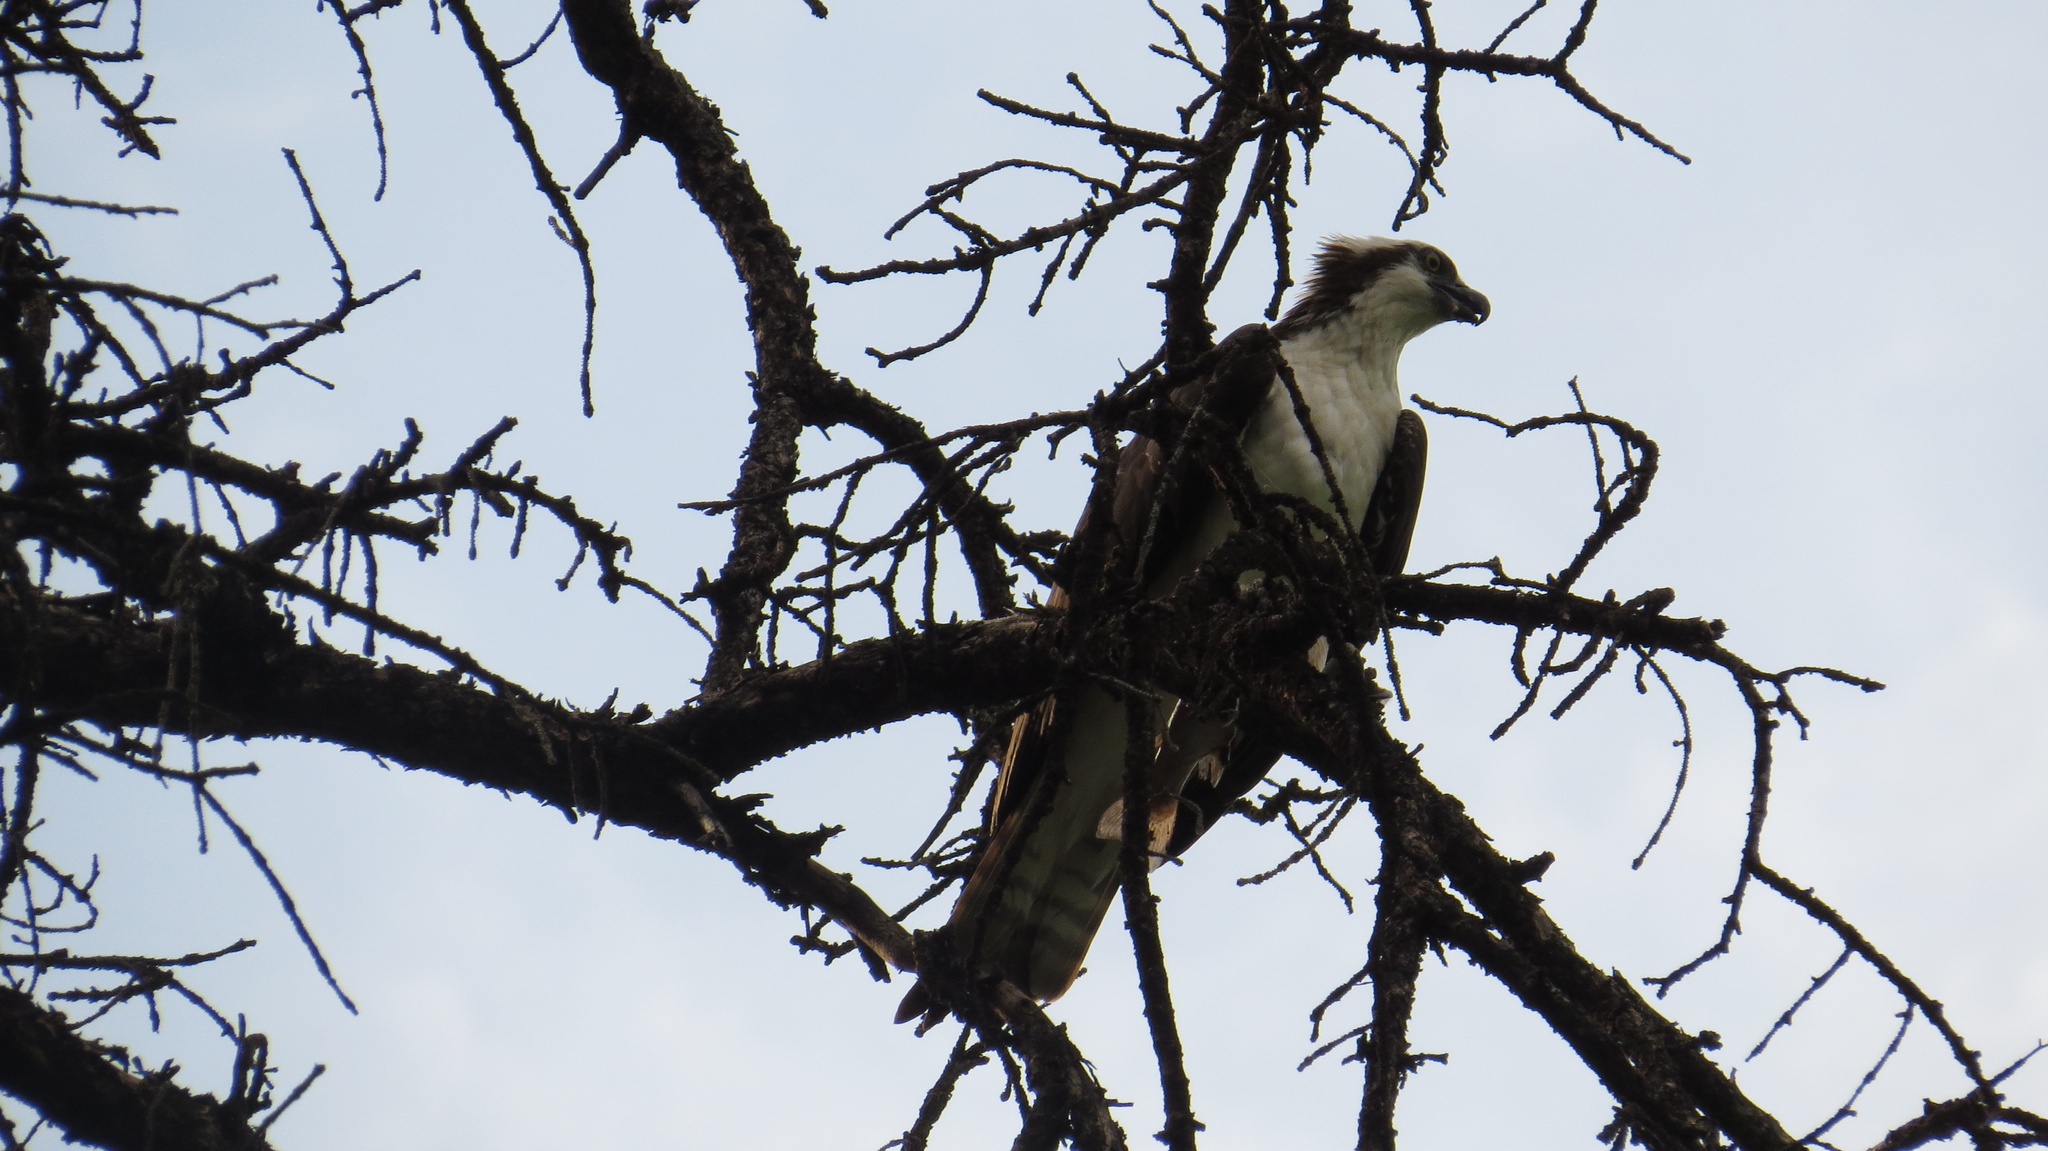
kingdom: Animalia
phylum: Chordata
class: Aves
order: Accipitriformes
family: Pandionidae
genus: Pandion
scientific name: Pandion haliaetus
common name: Osprey
